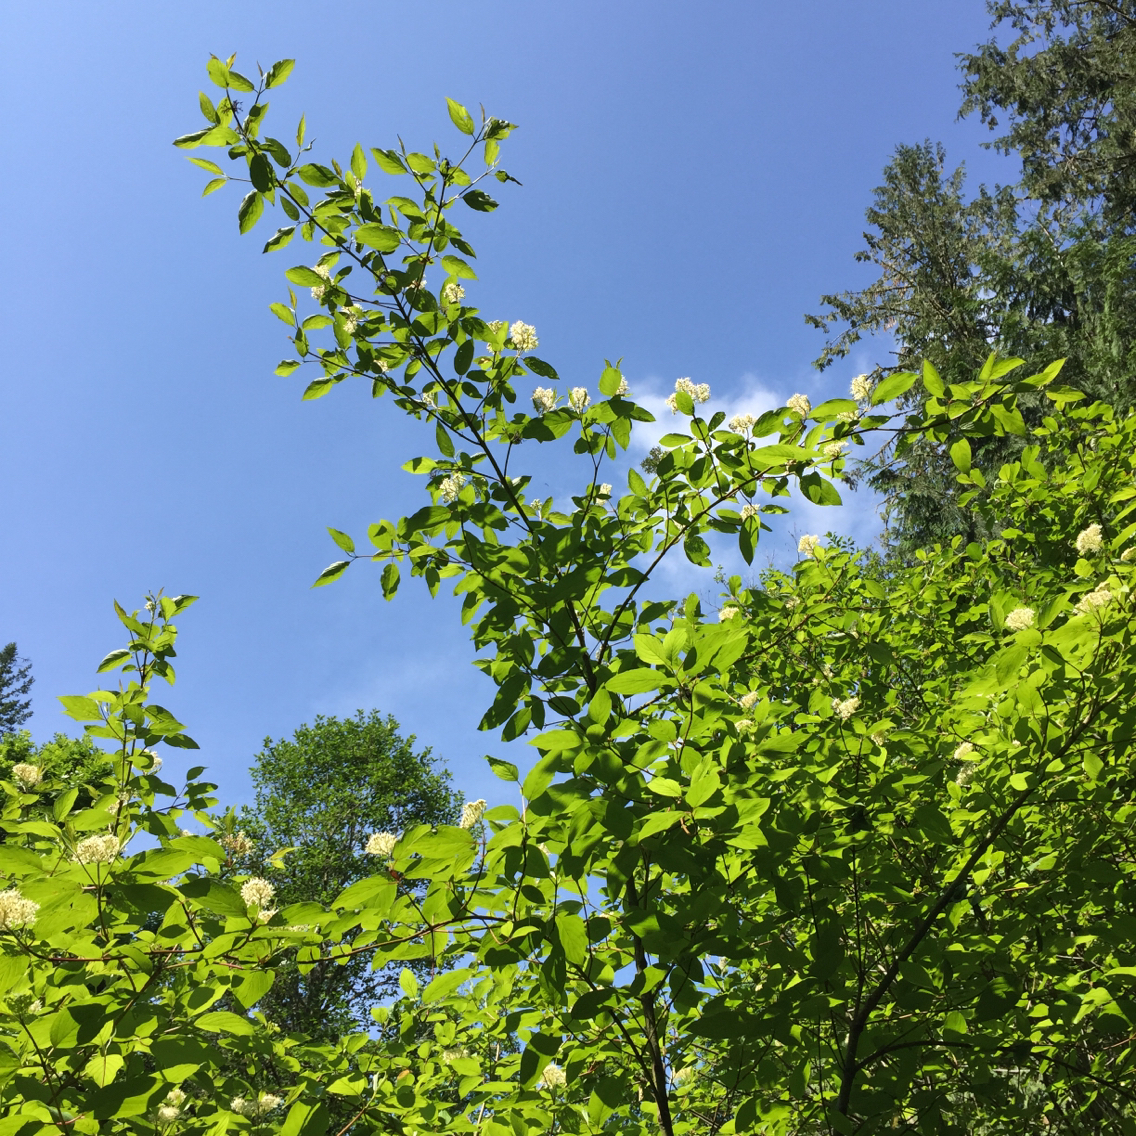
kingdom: Plantae
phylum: Tracheophyta
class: Magnoliopsida
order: Cornales
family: Cornaceae
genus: Cornus
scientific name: Cornus sericea
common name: Red-osier dogwood
